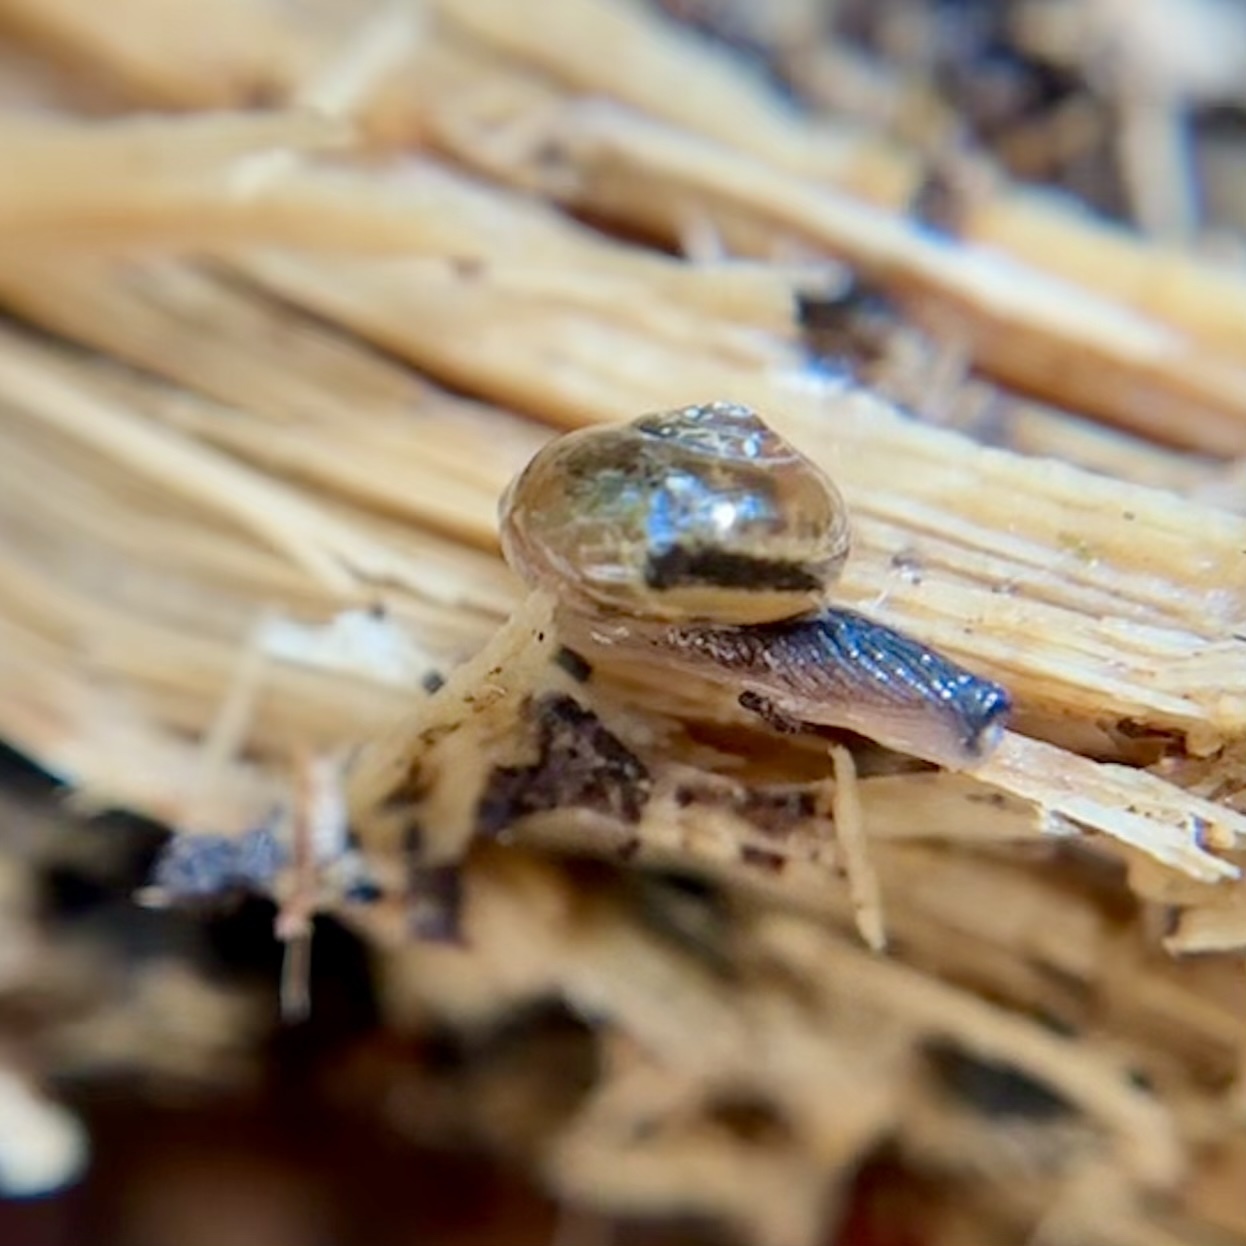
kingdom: Animalia
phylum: Mollusca
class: Gastropoda
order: Stylommatophora
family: Helicarionidae
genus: Ovachlamys
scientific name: Ovachlamys fulgens
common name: Jumping snail
